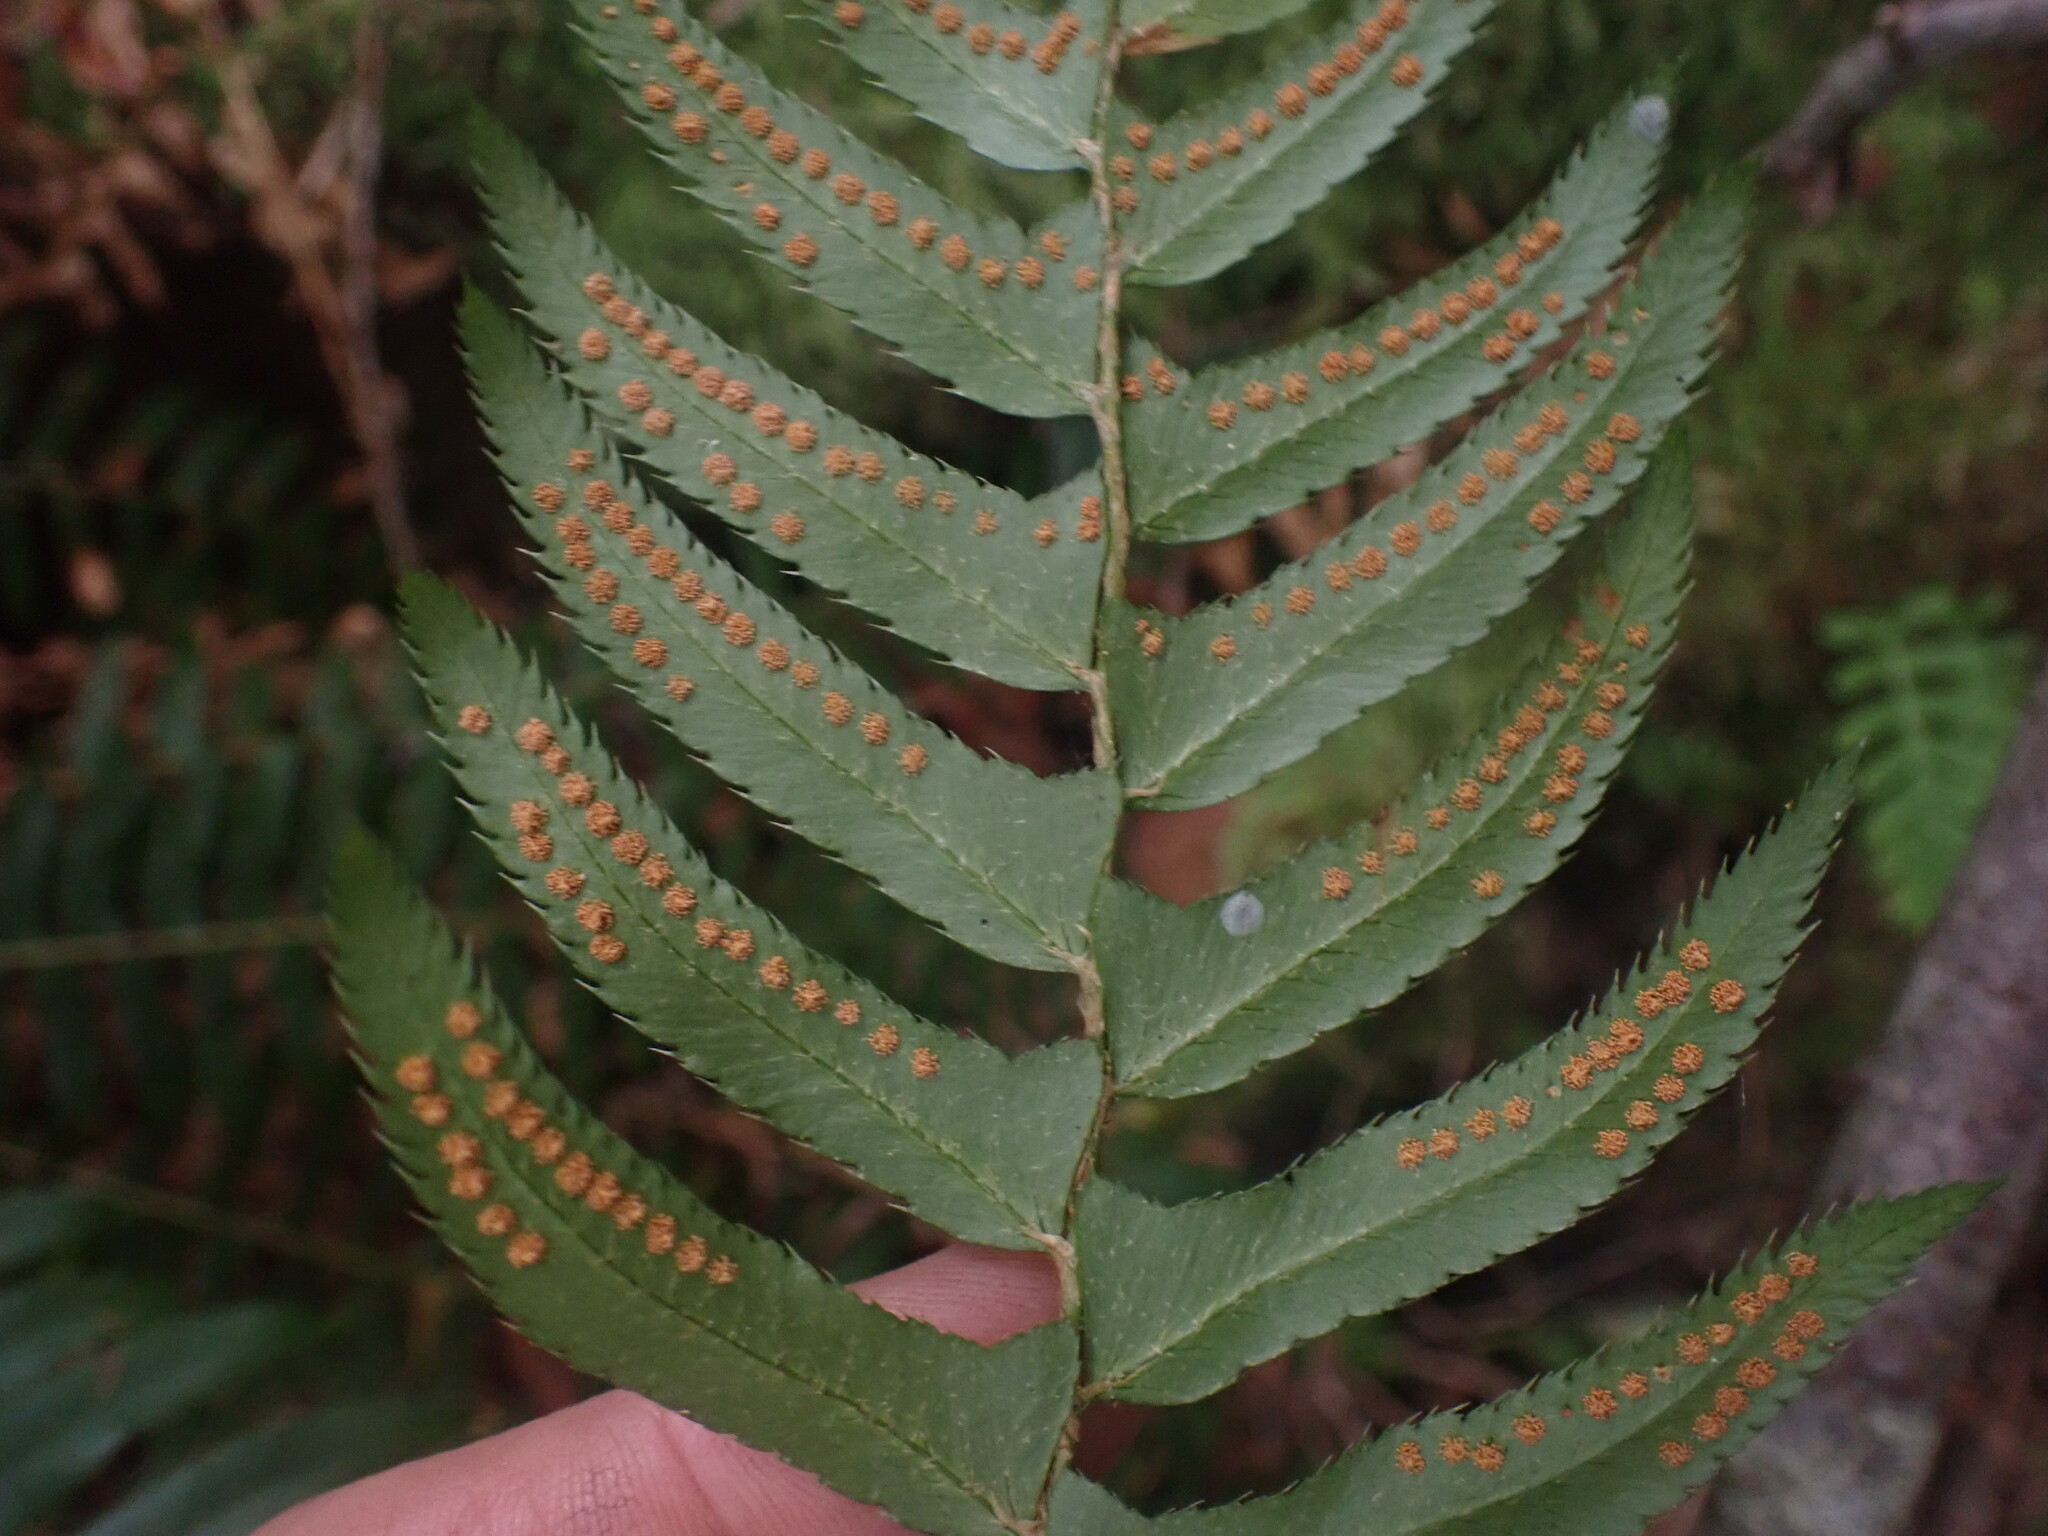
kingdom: Plantae
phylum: Tracheophyta
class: Polypodiopsida
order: Polypodiales
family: Dryopteridaceae
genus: Polystichum
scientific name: Polystichum munitum
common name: Western sword-fern
